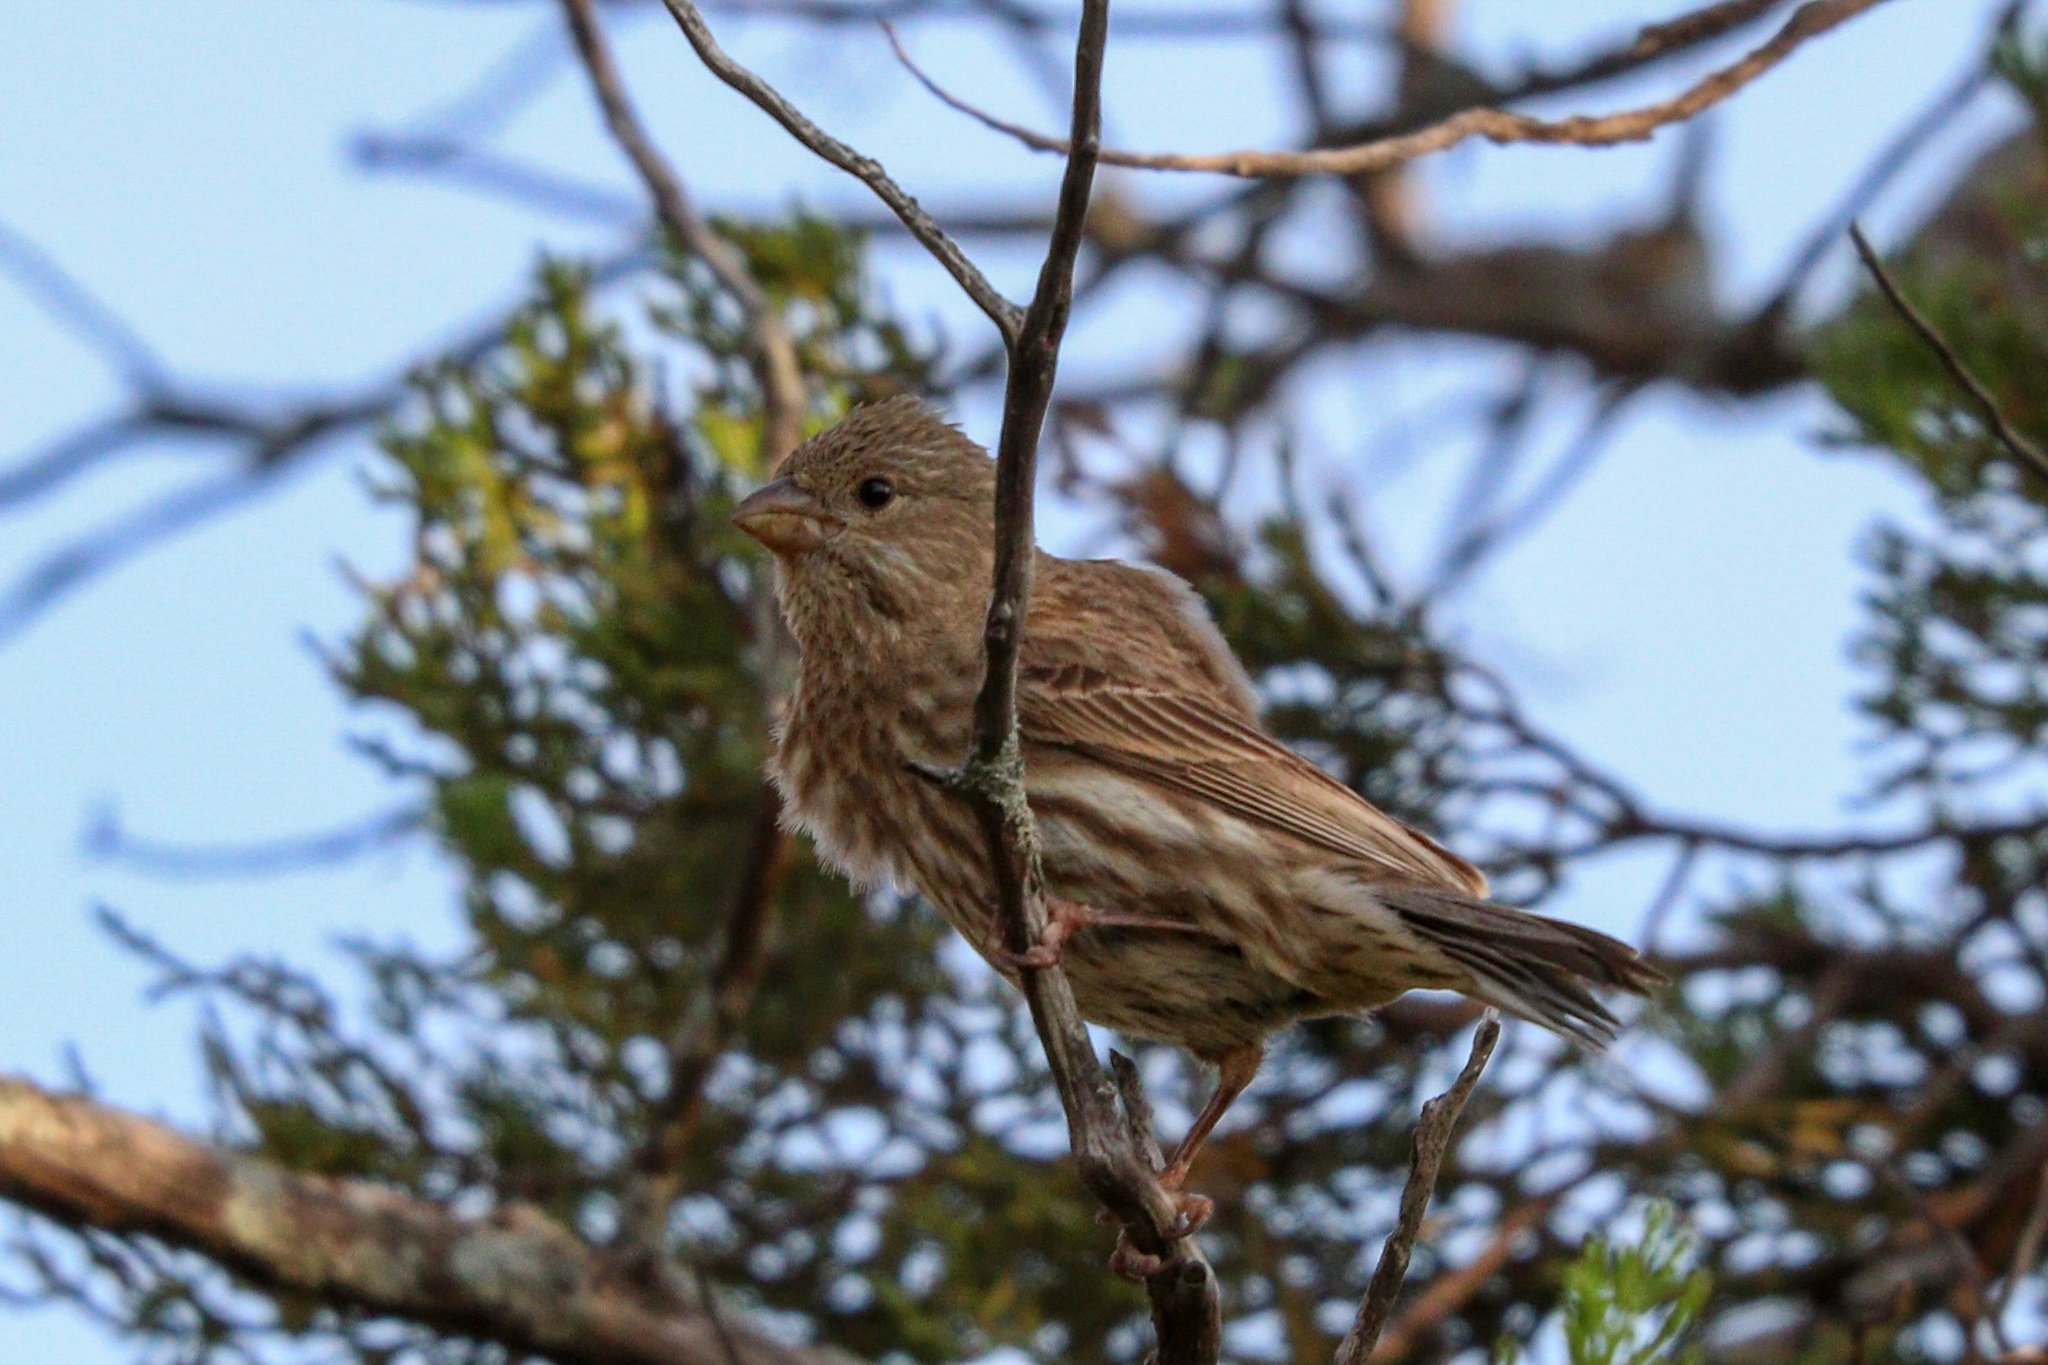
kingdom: Animalia
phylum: Chordata
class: Aves
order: Passeriformes
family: Fringillidae
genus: Haemorhous
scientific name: Haemorhous mexicanus
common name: House finch
